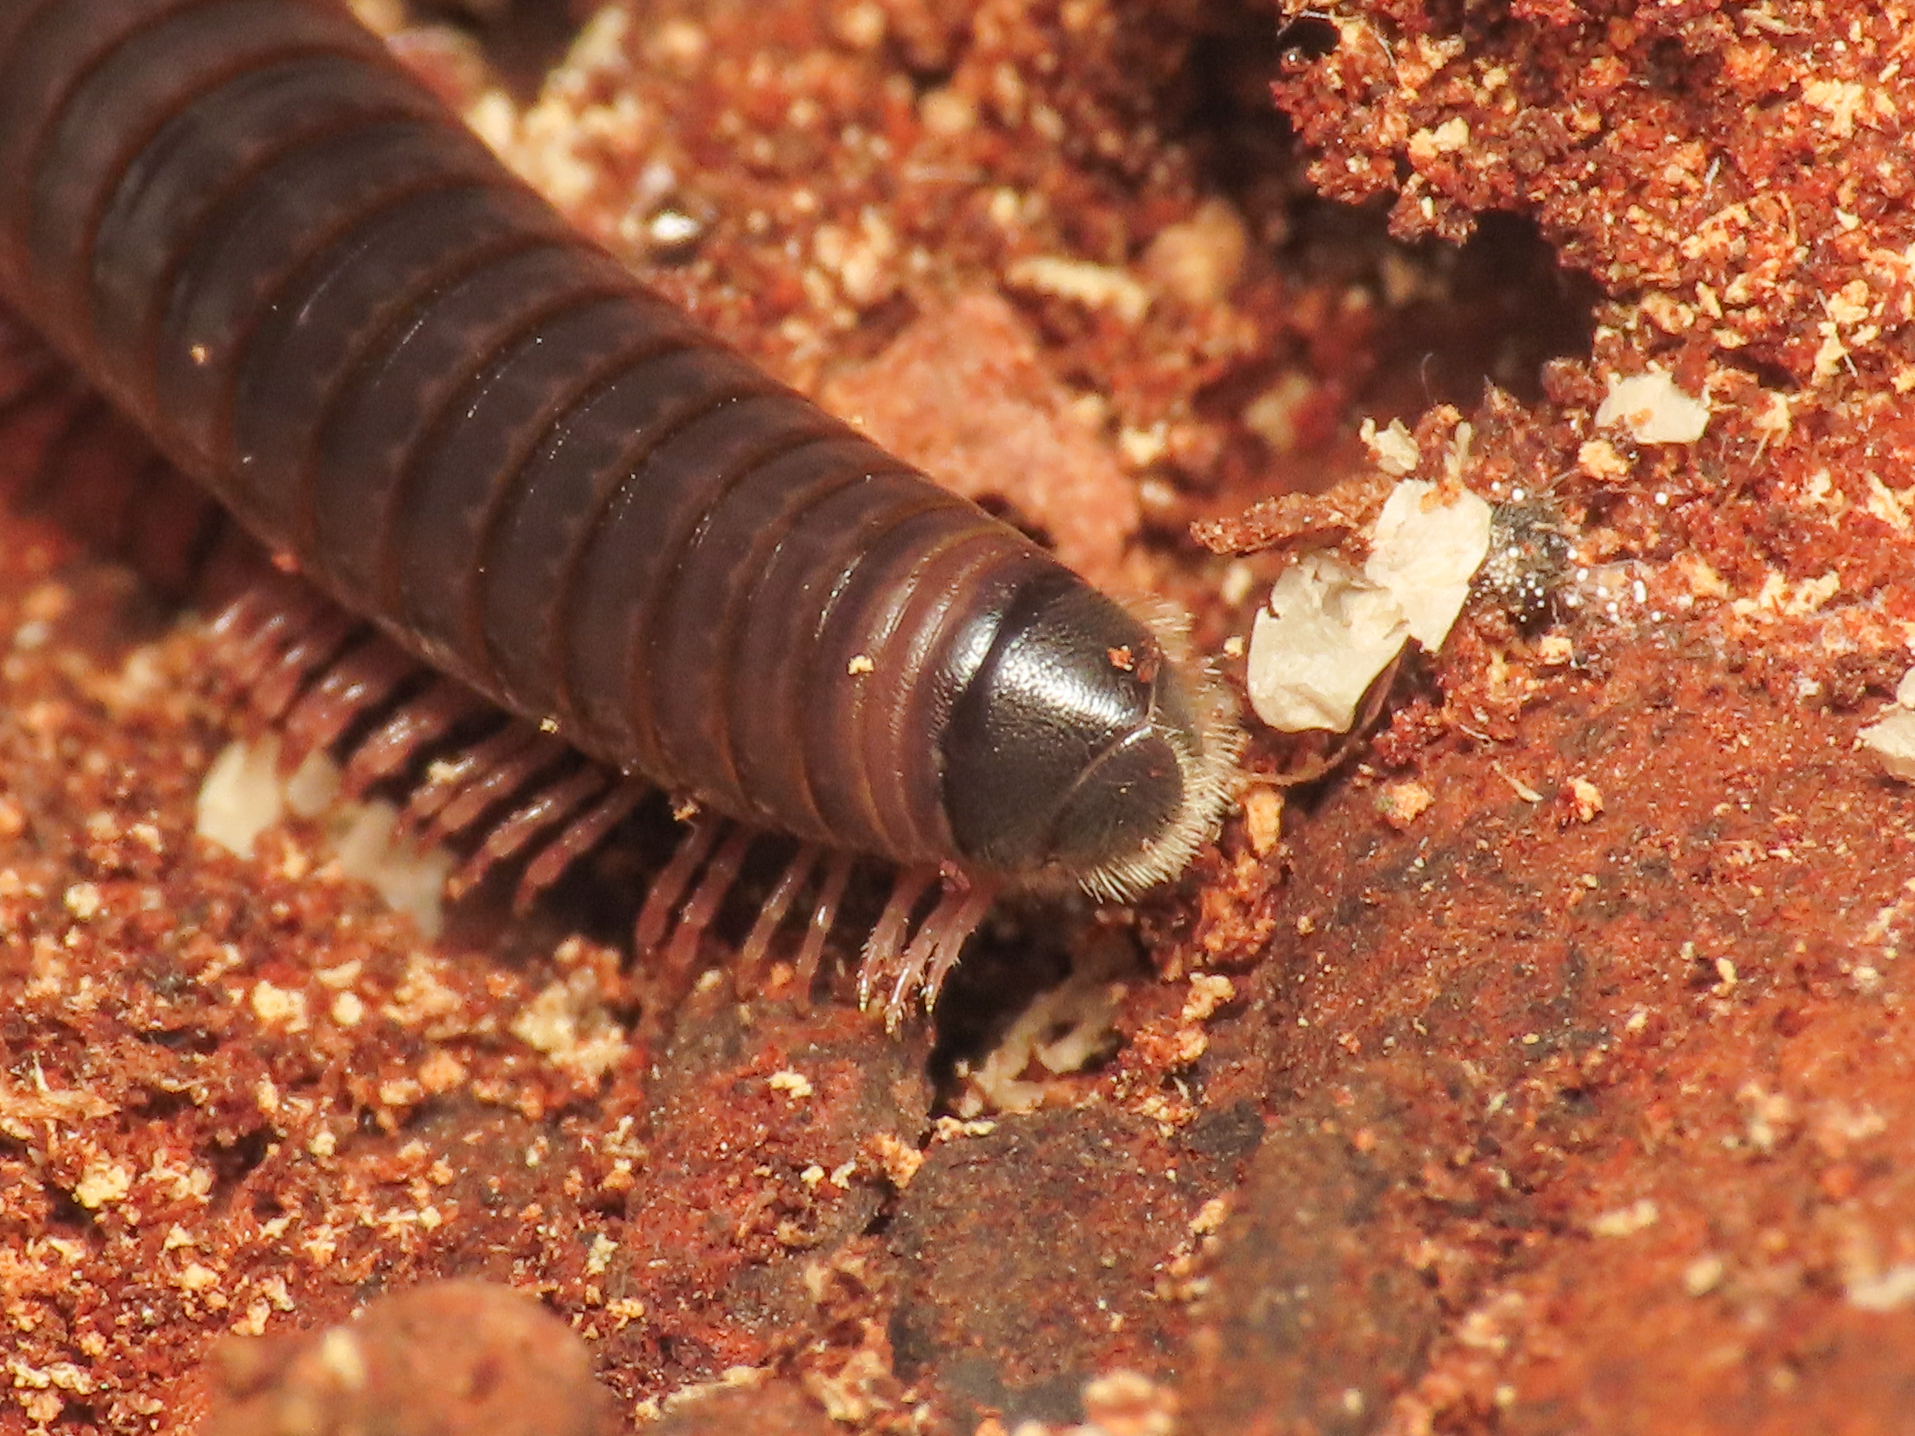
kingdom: Animalia
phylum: Arthropoda
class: Diplopoda
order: Julida
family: Julidae
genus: Pachyiulus
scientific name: Pachyiulus oenologus
